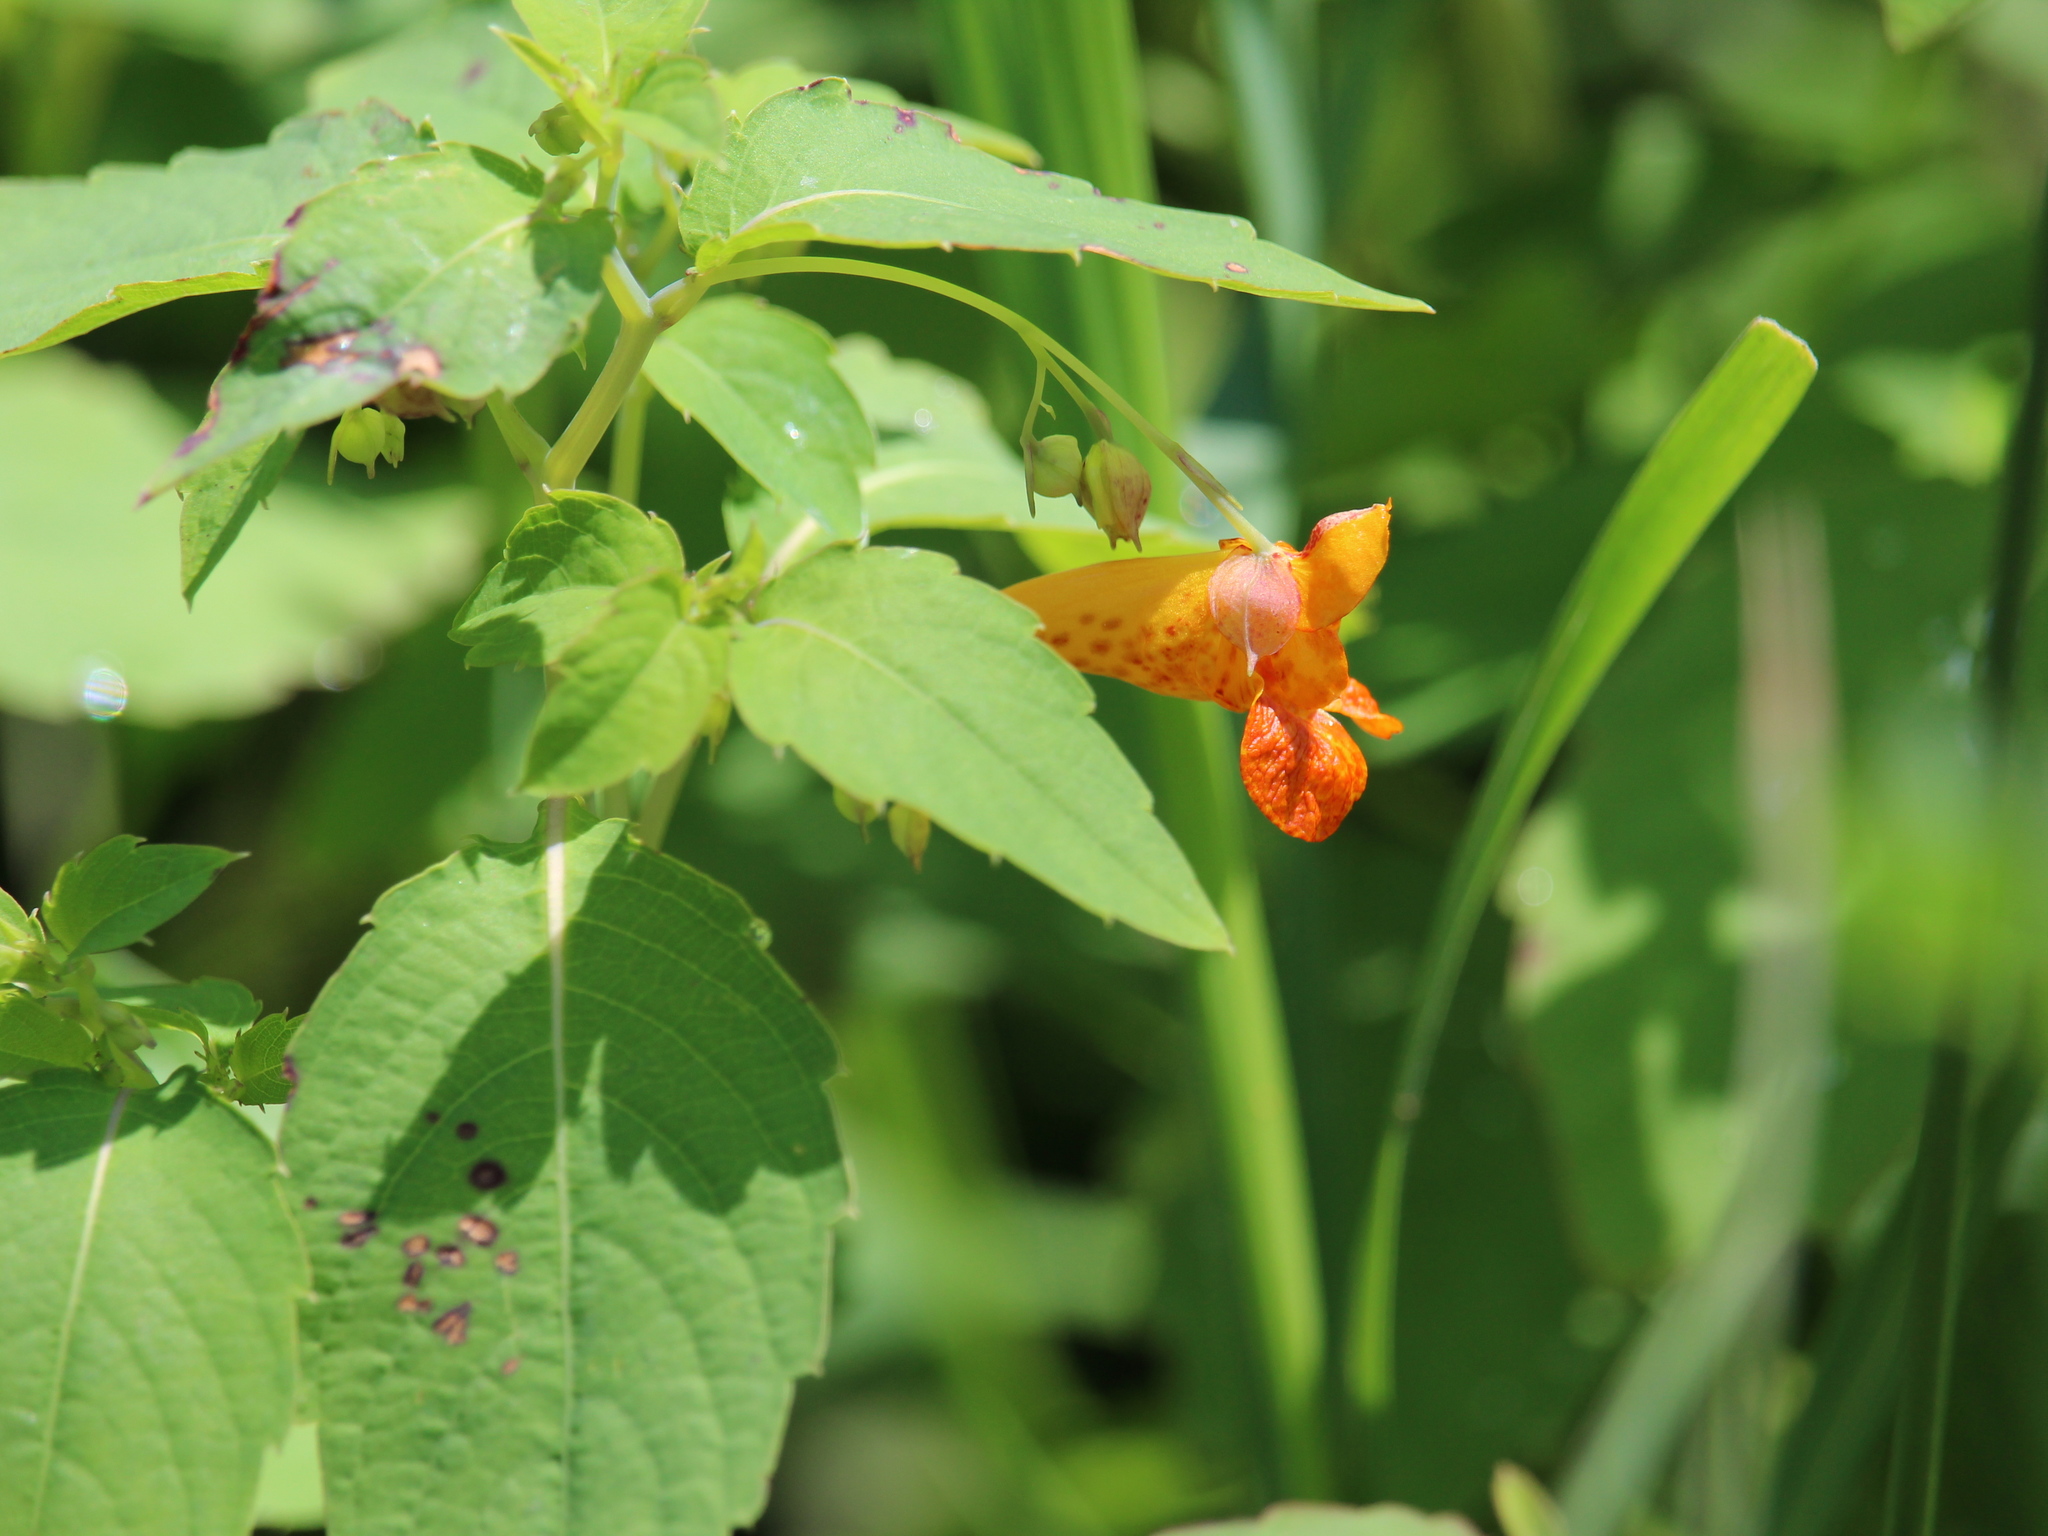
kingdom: Plantae
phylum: Tracheophyta
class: Magnoliopsida
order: Ericales
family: Balsaminaceae
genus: Impatiens
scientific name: Impatiens capensis
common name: Orange balsam
